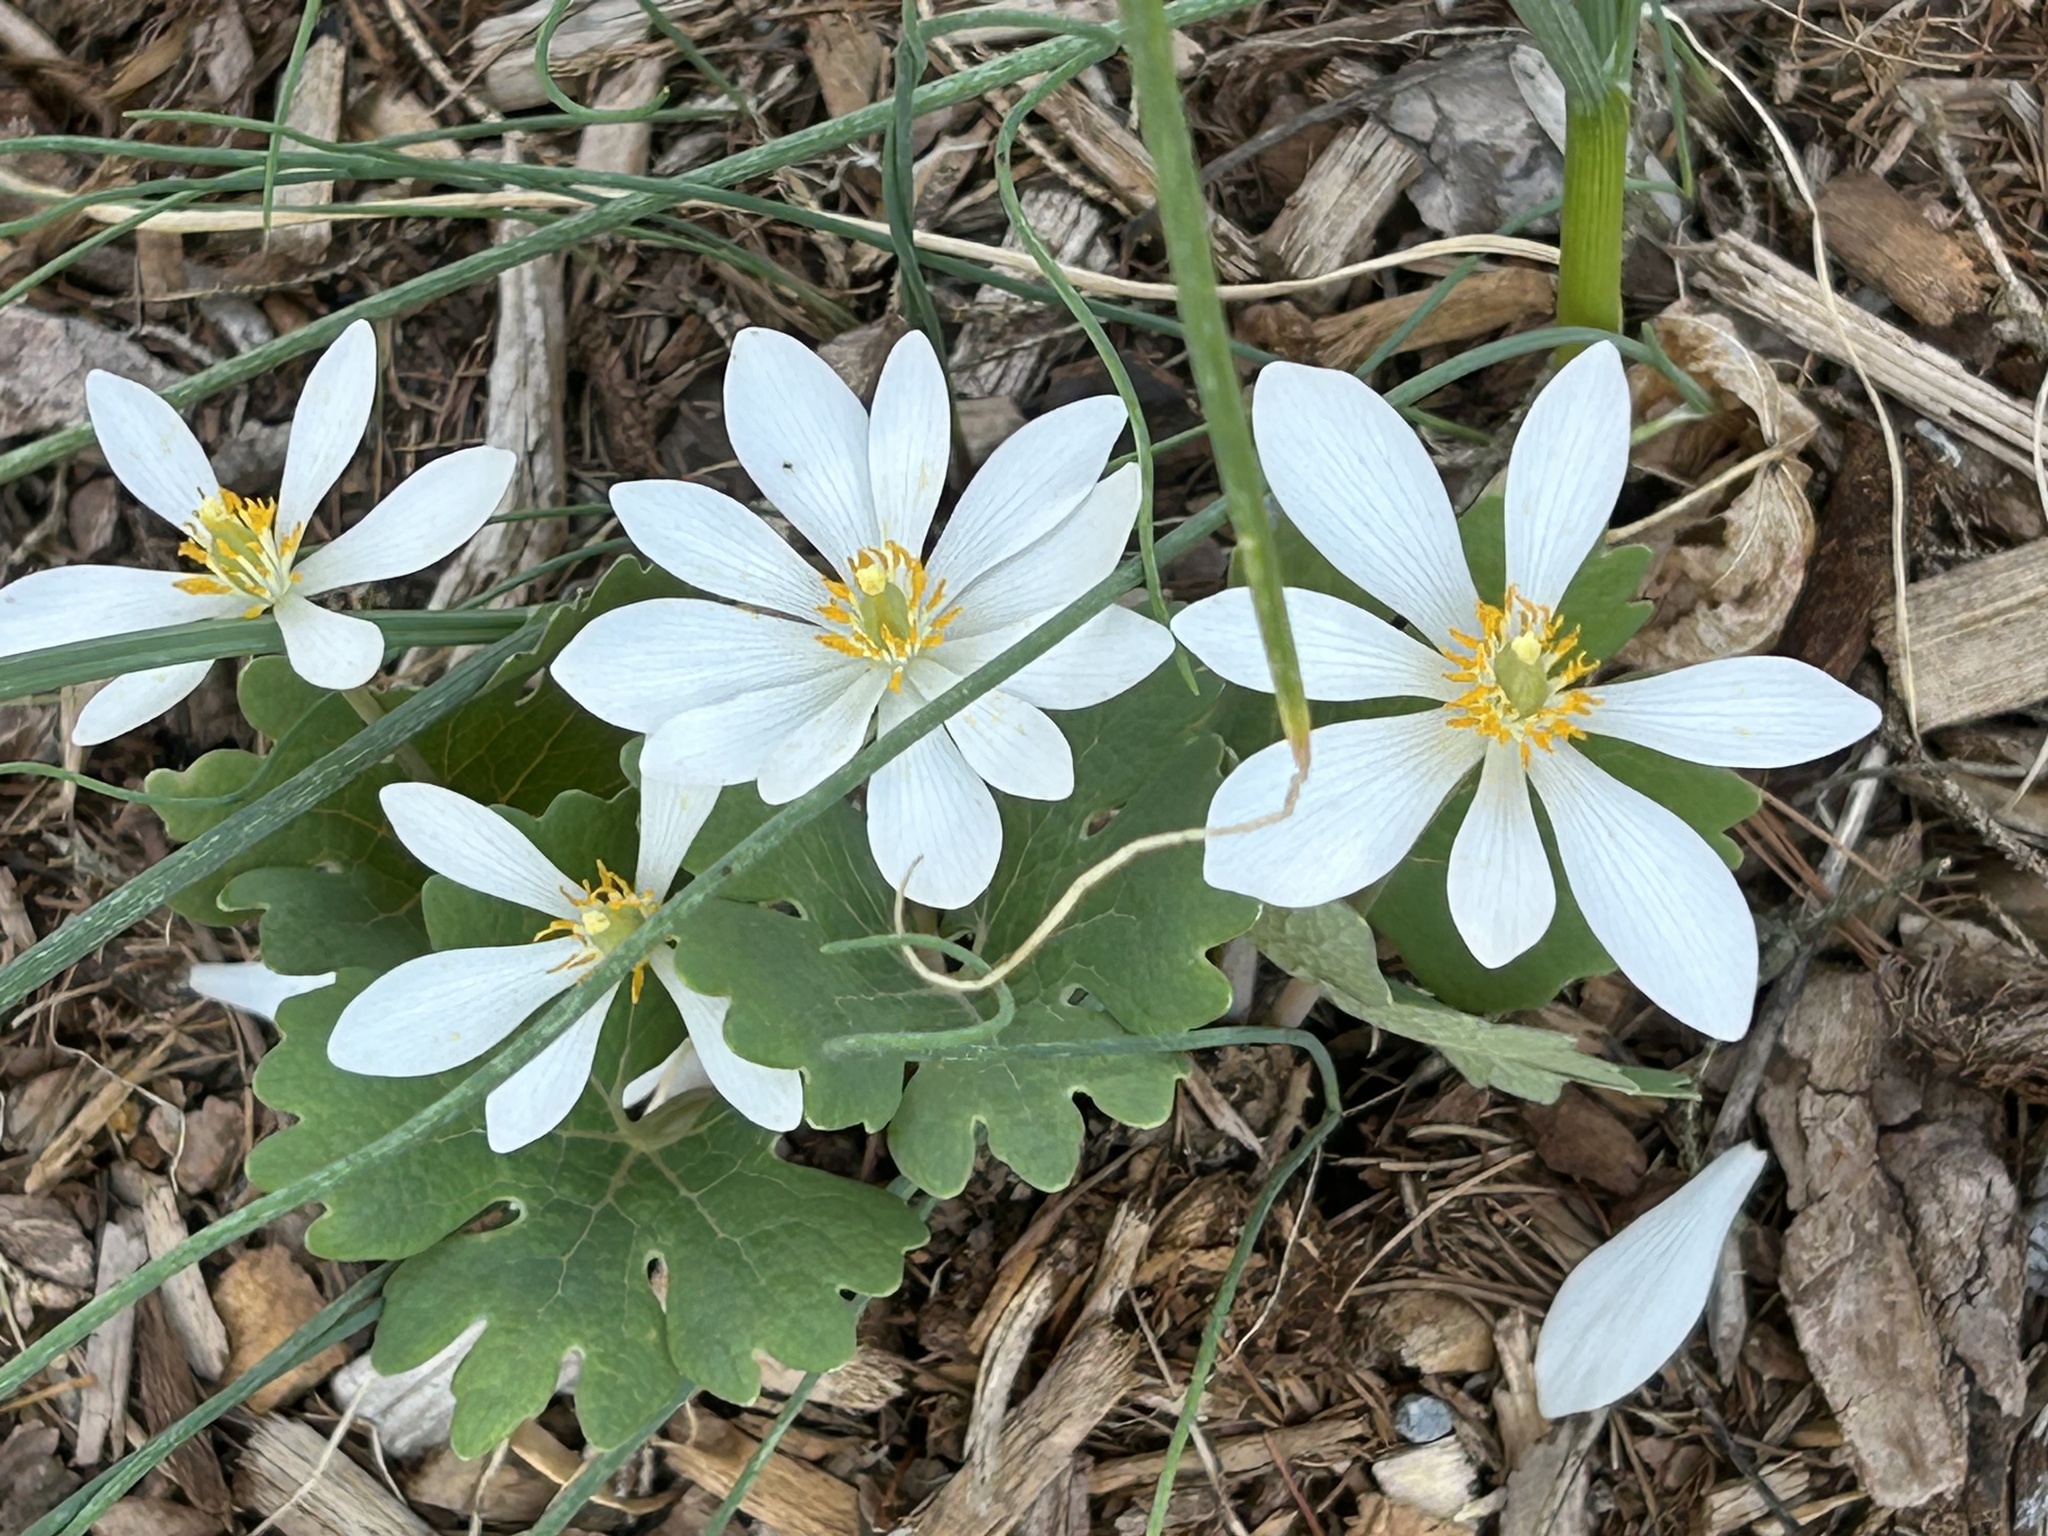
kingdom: Plantae
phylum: Tracheophyta
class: Magnoliopsida
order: Ranunculales
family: Papaveraceae
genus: Sanguinaria
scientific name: Sanguinaria canadensis
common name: Bloodroot
